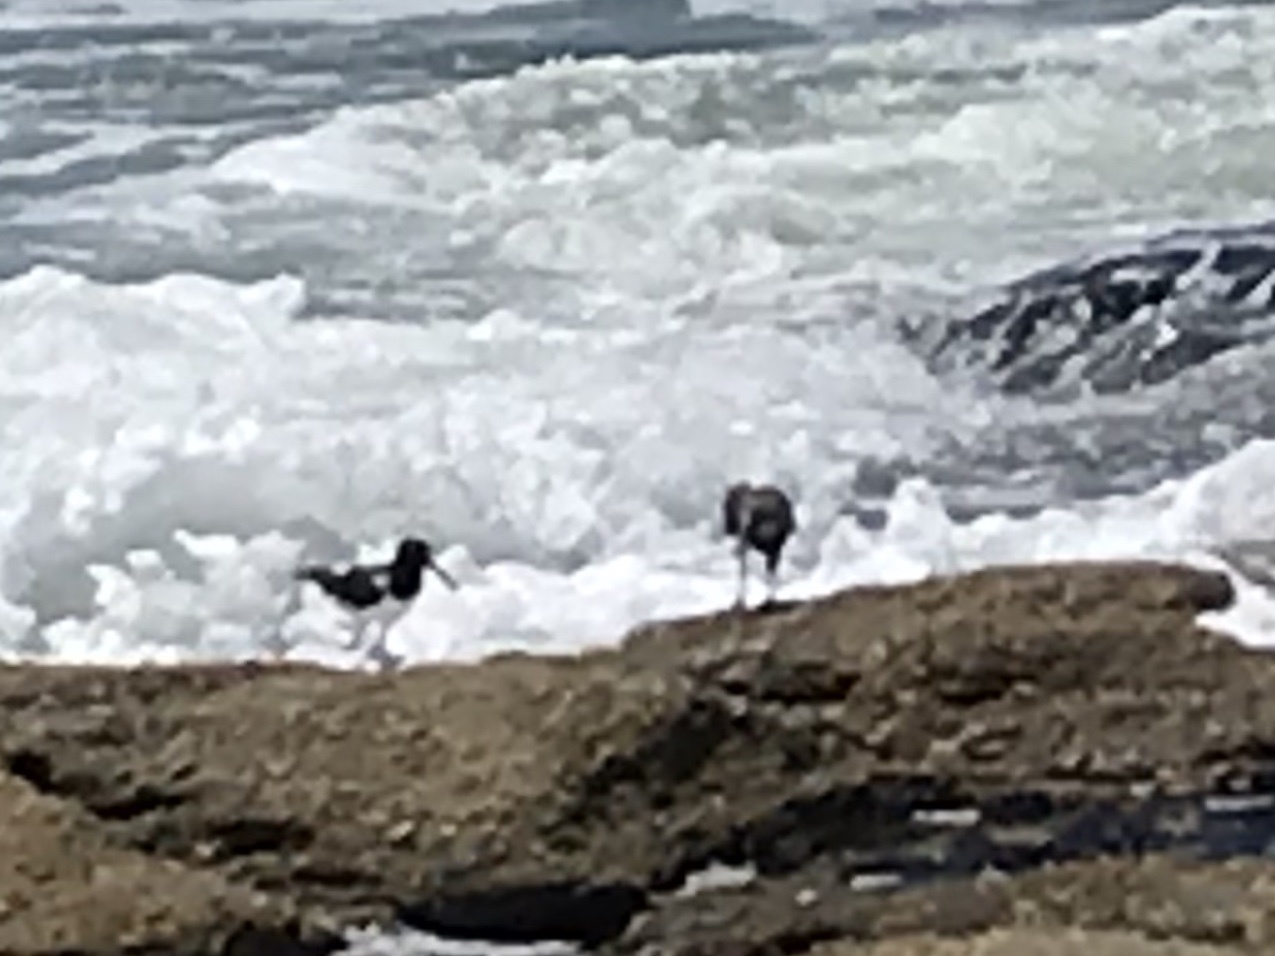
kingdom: Animalia
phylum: Chordata
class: Aves
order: Charadriiformes
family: Haematopodidae
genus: Haematopus
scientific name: Haematopus palliatus
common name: American oystercatcher
